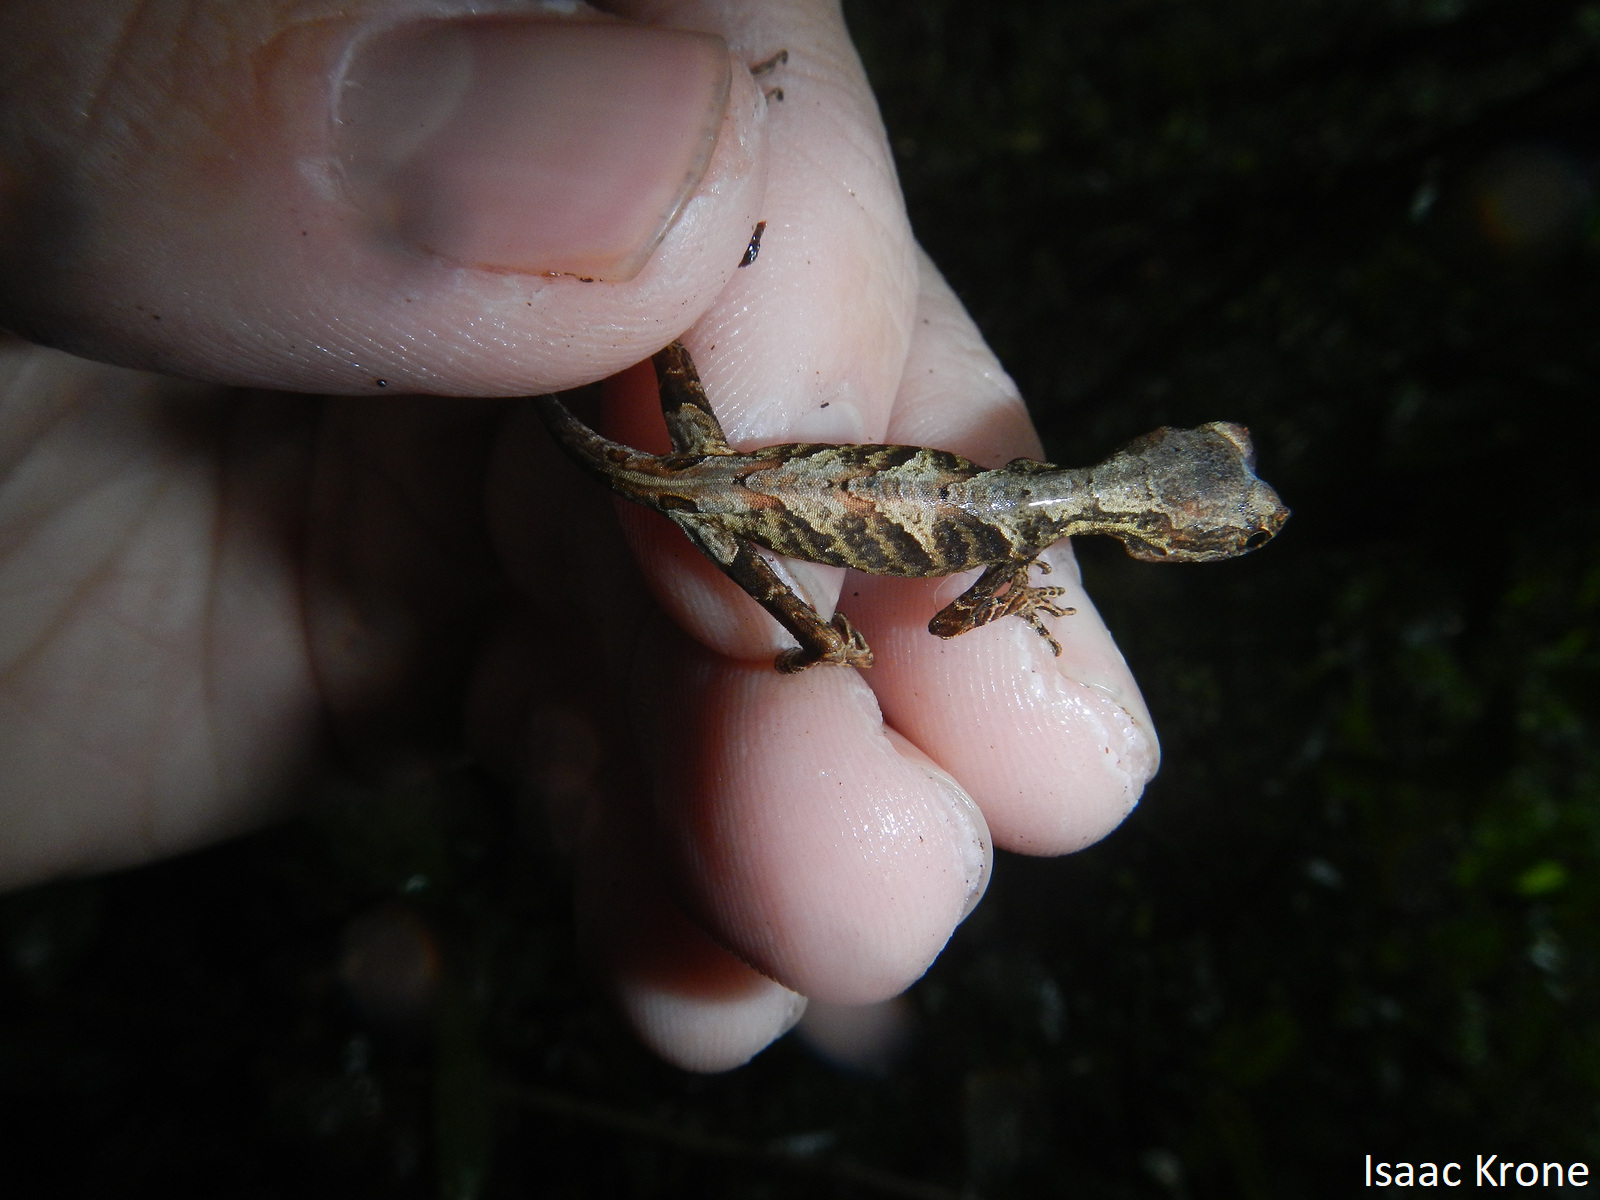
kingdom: Animalia
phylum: Chordata
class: Squamata
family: Dactyloidae
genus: Anolis
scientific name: Anolis tandai
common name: Tandai’s anole
